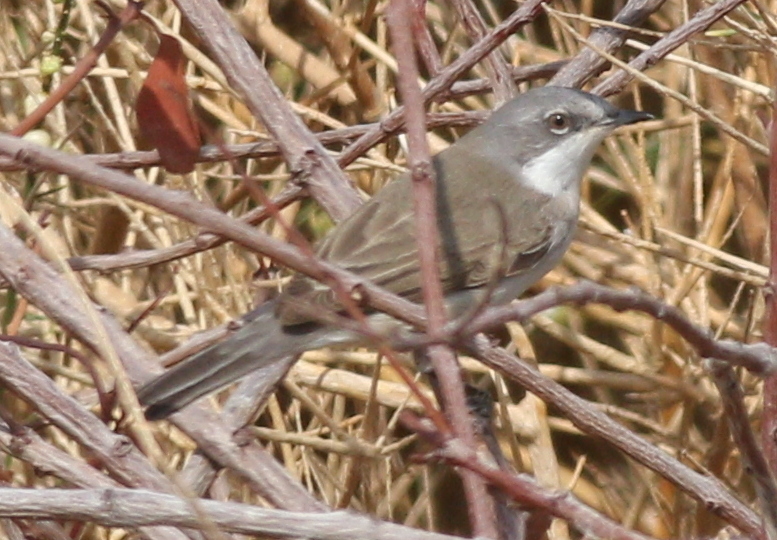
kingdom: Animalia
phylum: Chordata
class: Aves
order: Passeriformes
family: Sylviidae
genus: Sylvia
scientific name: Sylvia curruca
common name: Lesser whitethroat
